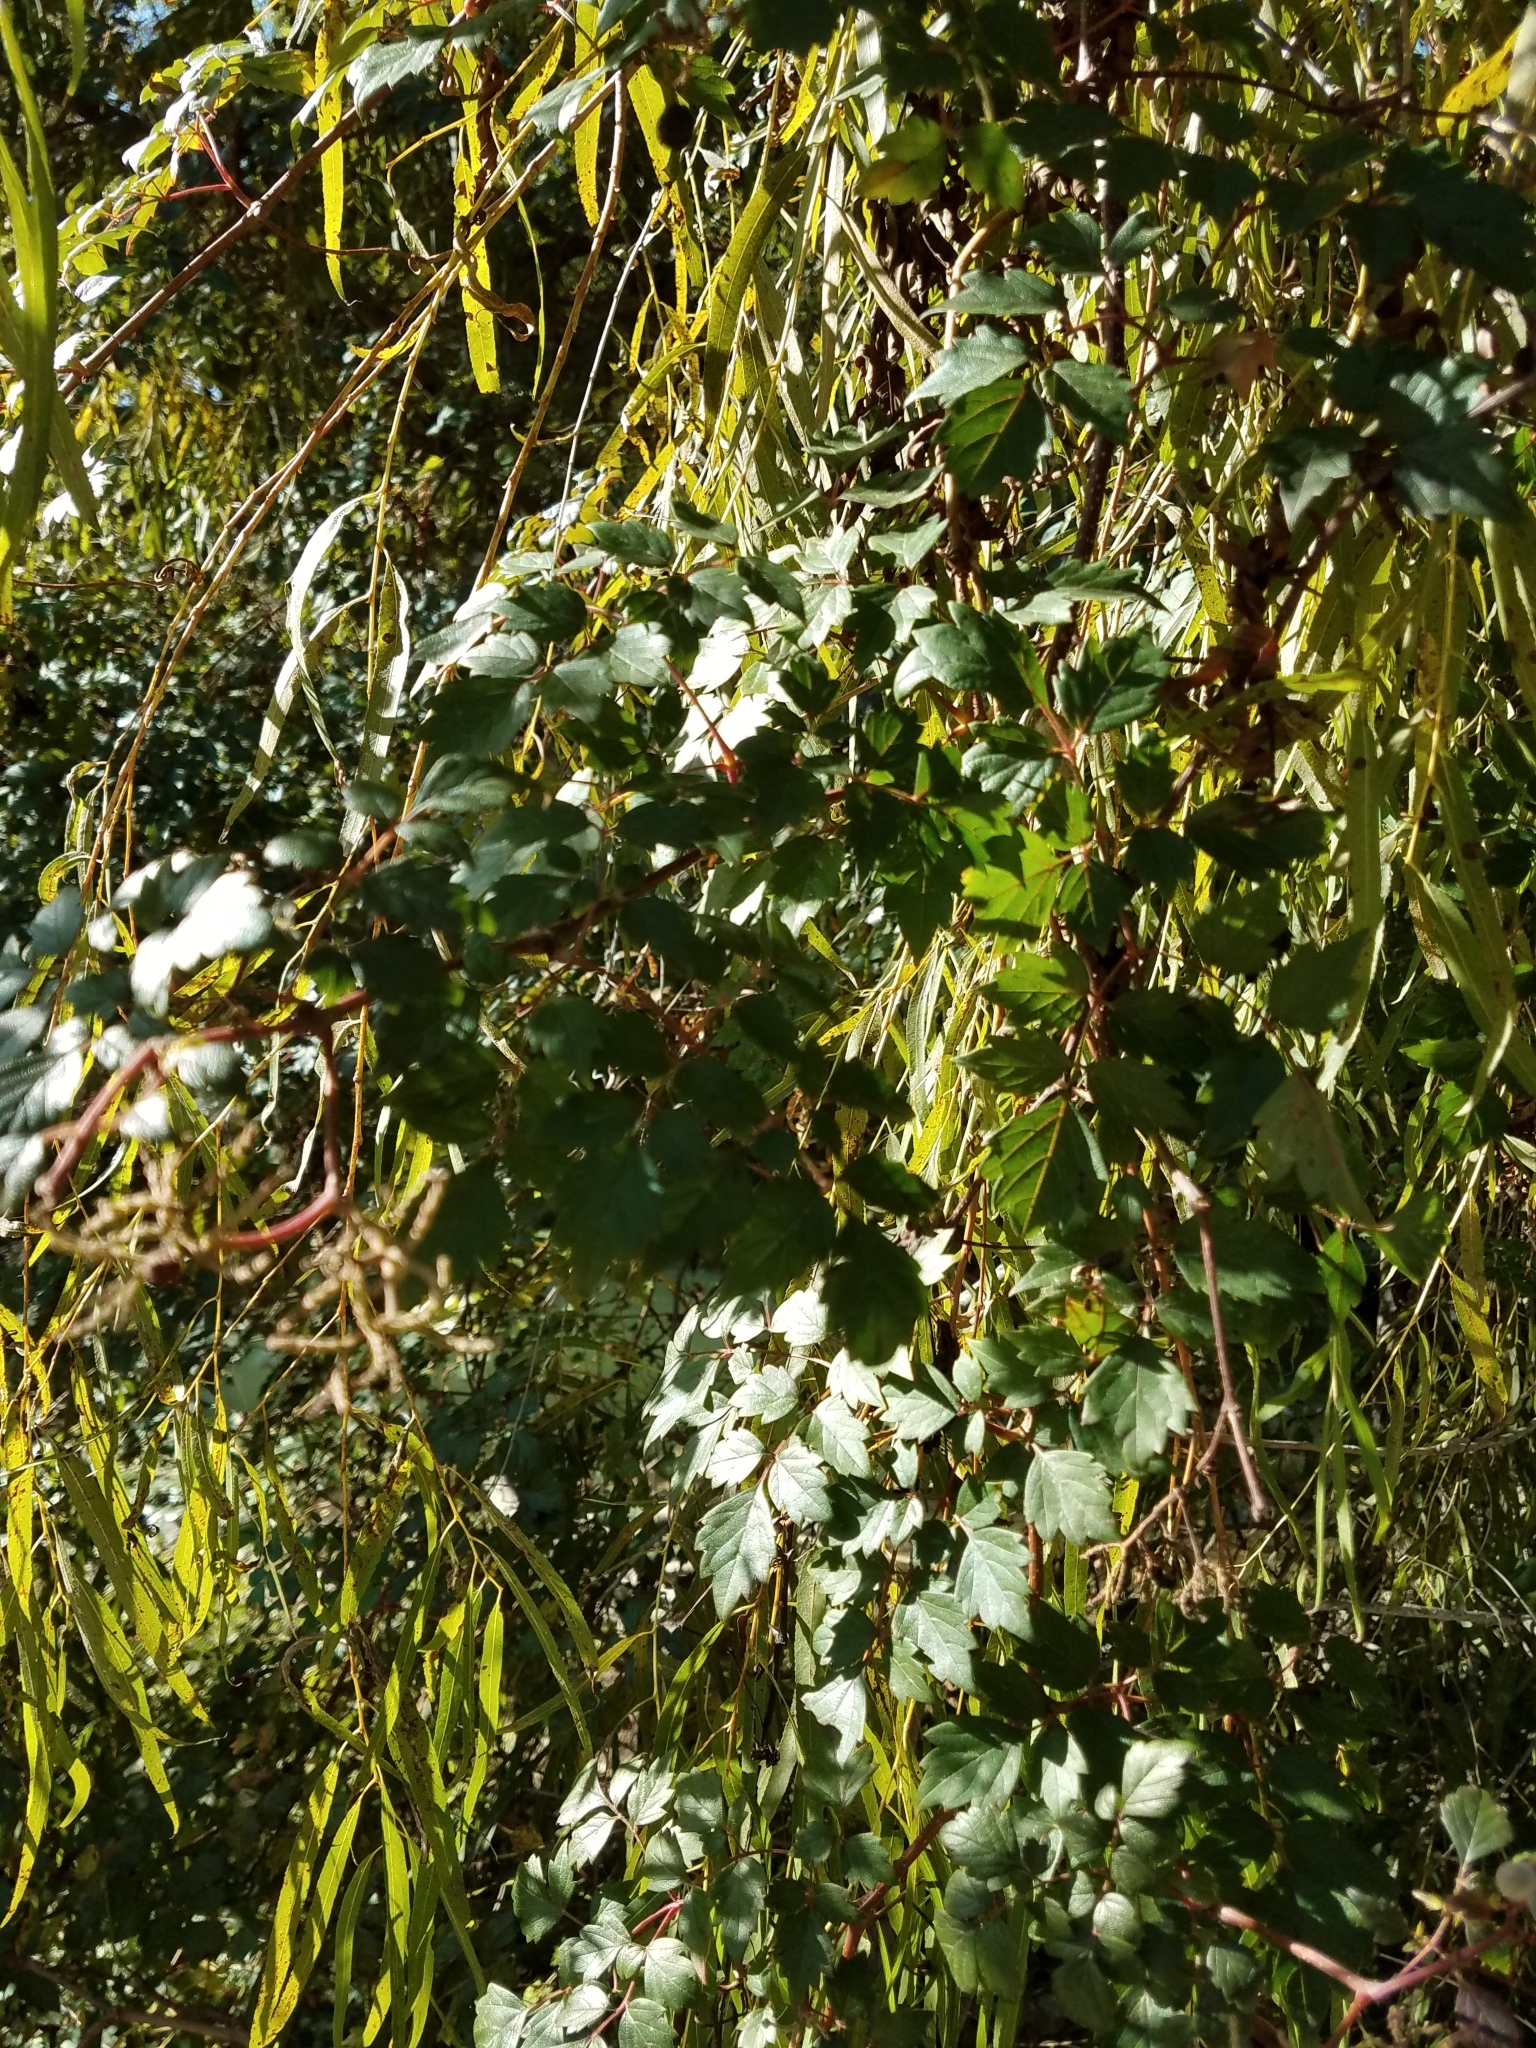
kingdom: Plantae
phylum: Tracheophyta
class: Magnoliopsida
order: Vitales
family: Vitaceae
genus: Nekemias
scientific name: Nekemias arborea
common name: Peppervine
